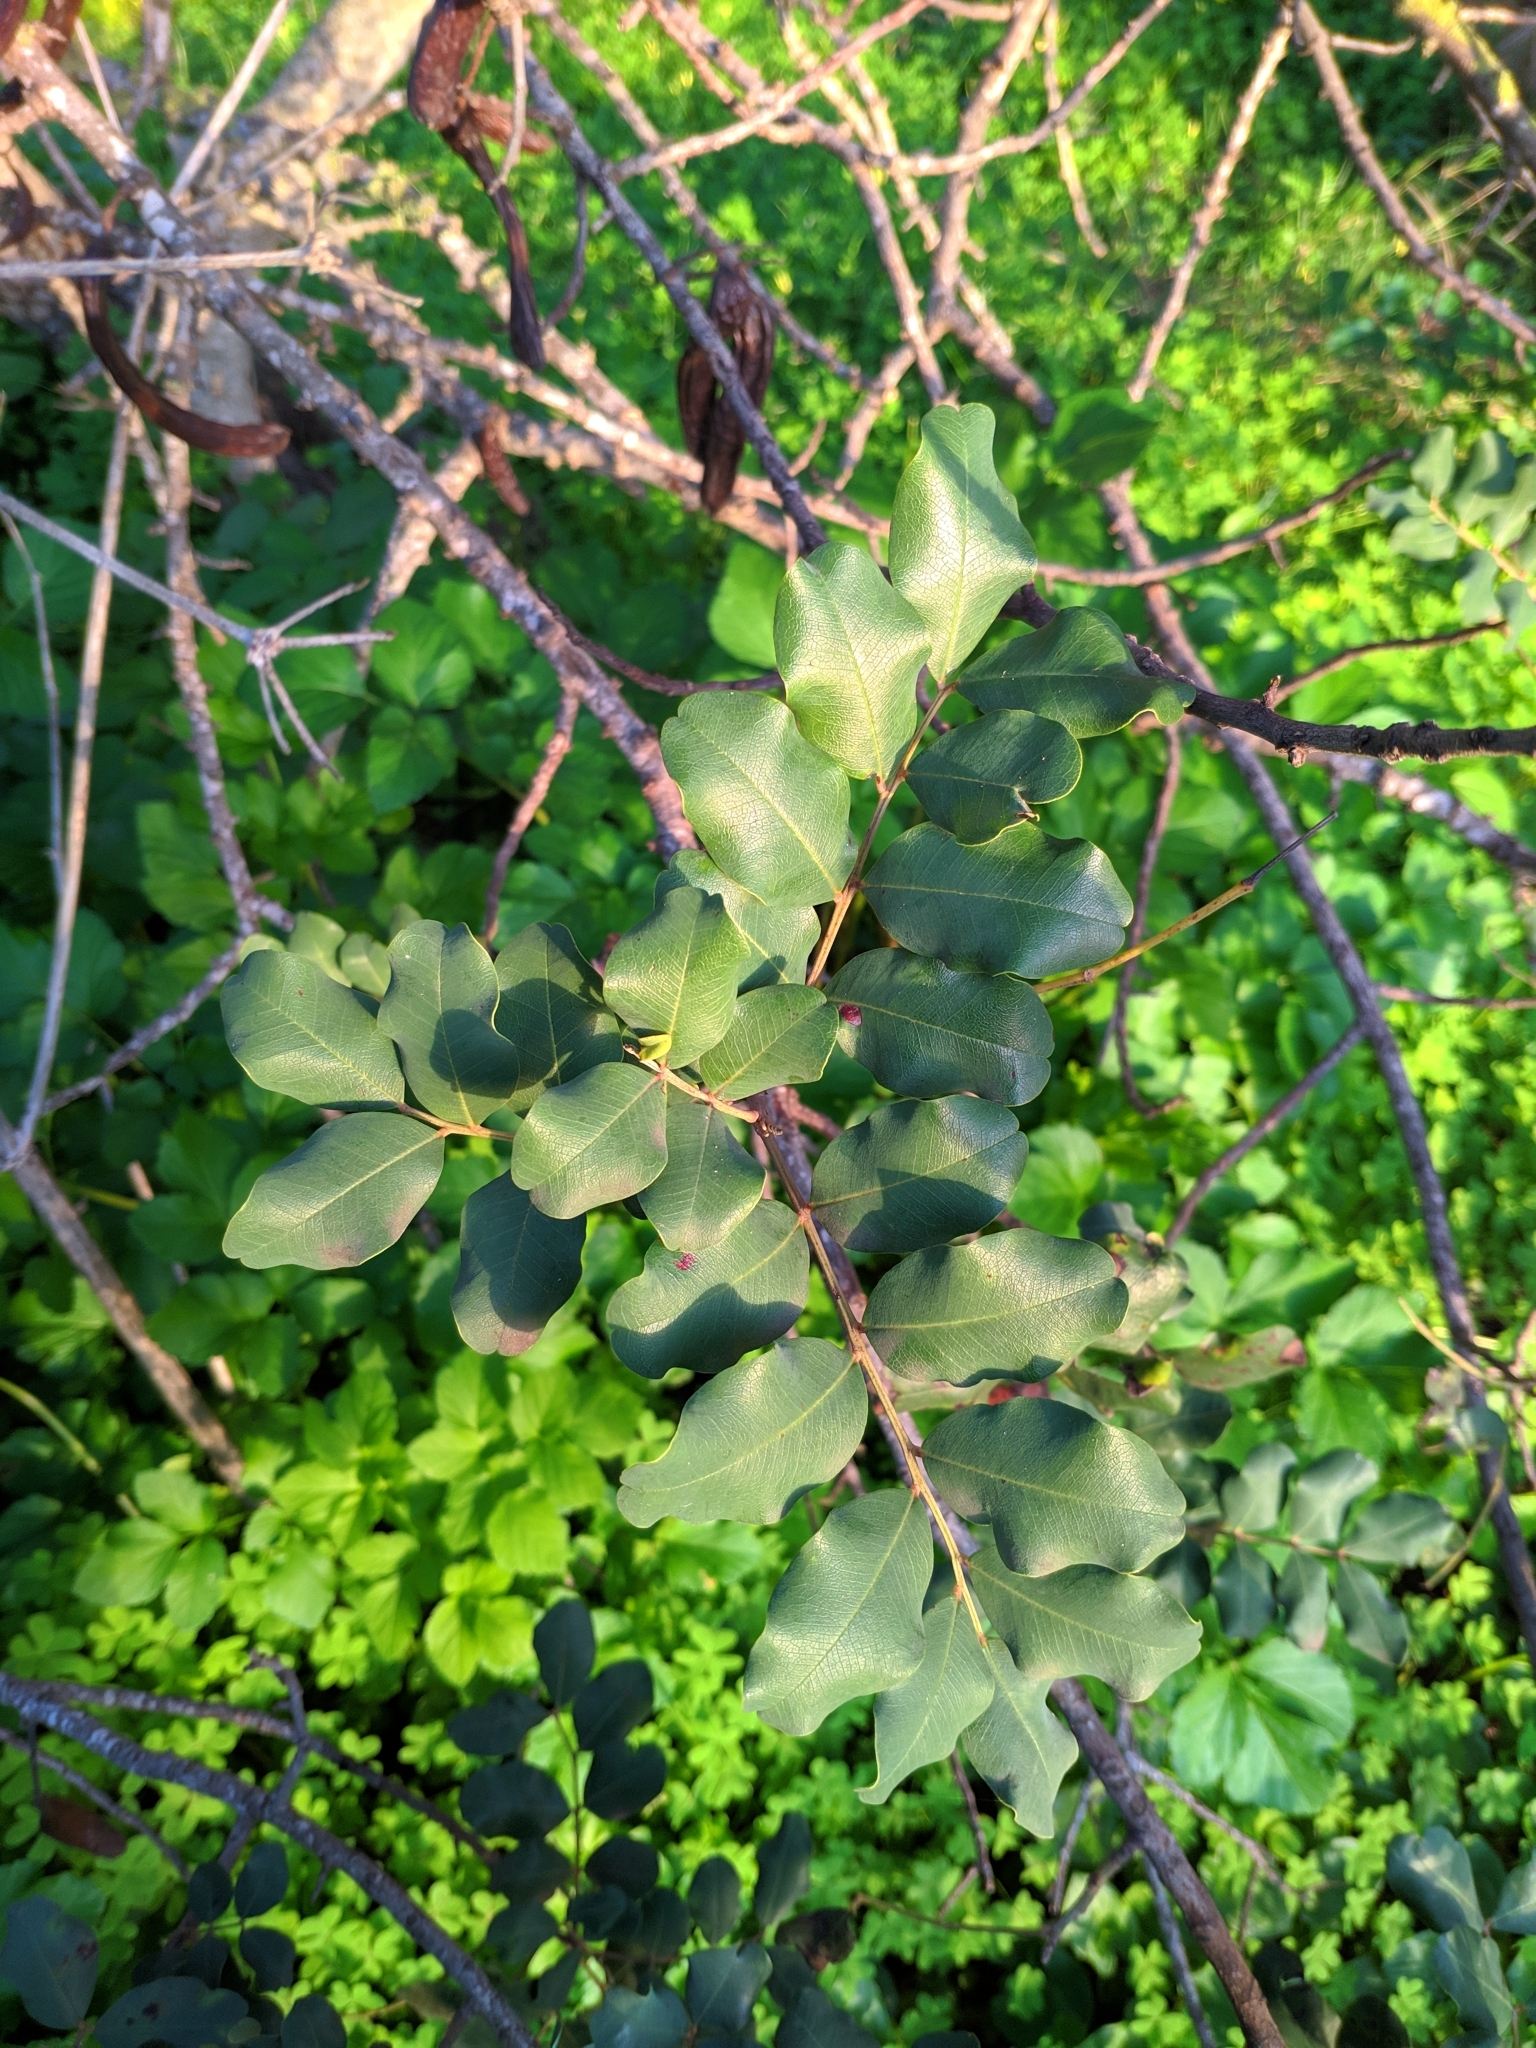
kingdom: Plantae
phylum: Tracheophyta
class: Magnoliopsida
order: Fabales
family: Fabaceae
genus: Ceratonia
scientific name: Ceratonia siliqua
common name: Carob
